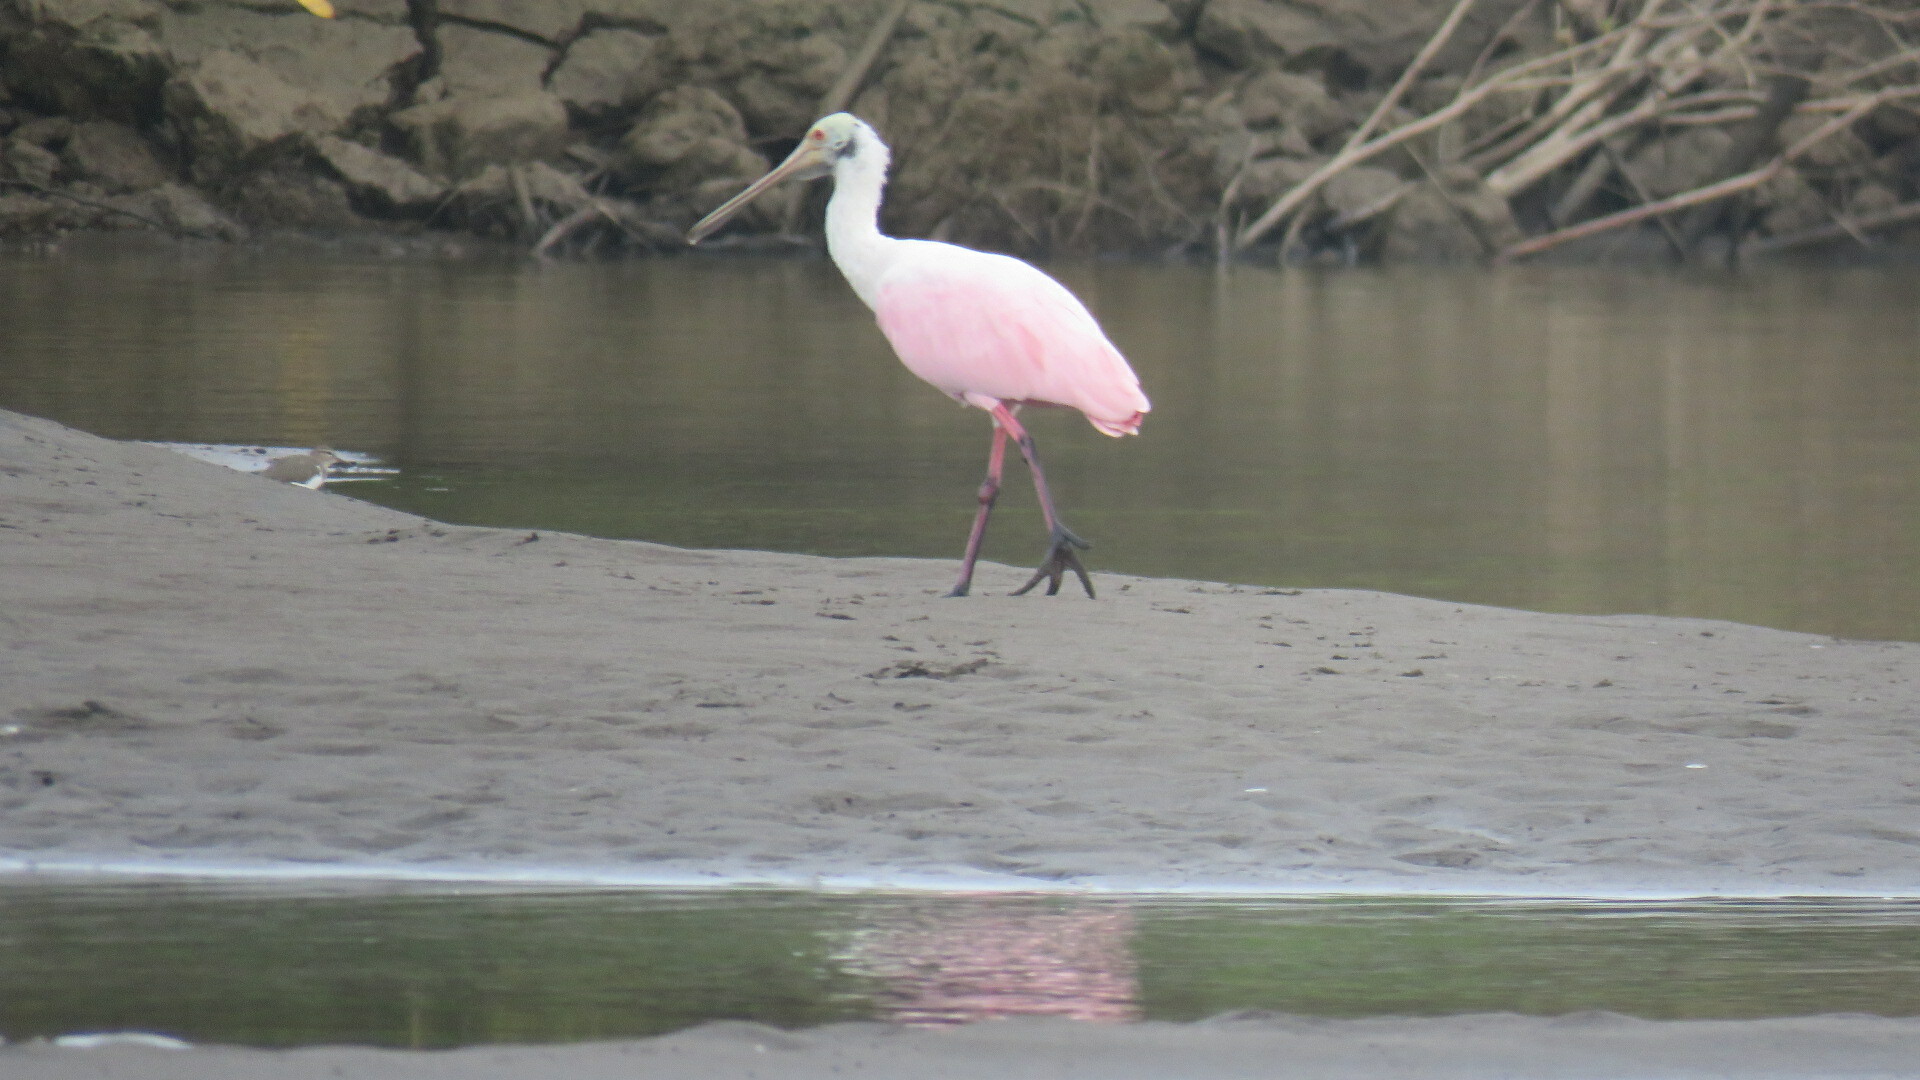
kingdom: Animalia
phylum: Chordata
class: Aves
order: Pelecaniformes
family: Threskiornithidae
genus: Platalea
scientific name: Platalea ajaja
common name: Roseate spoonbill
